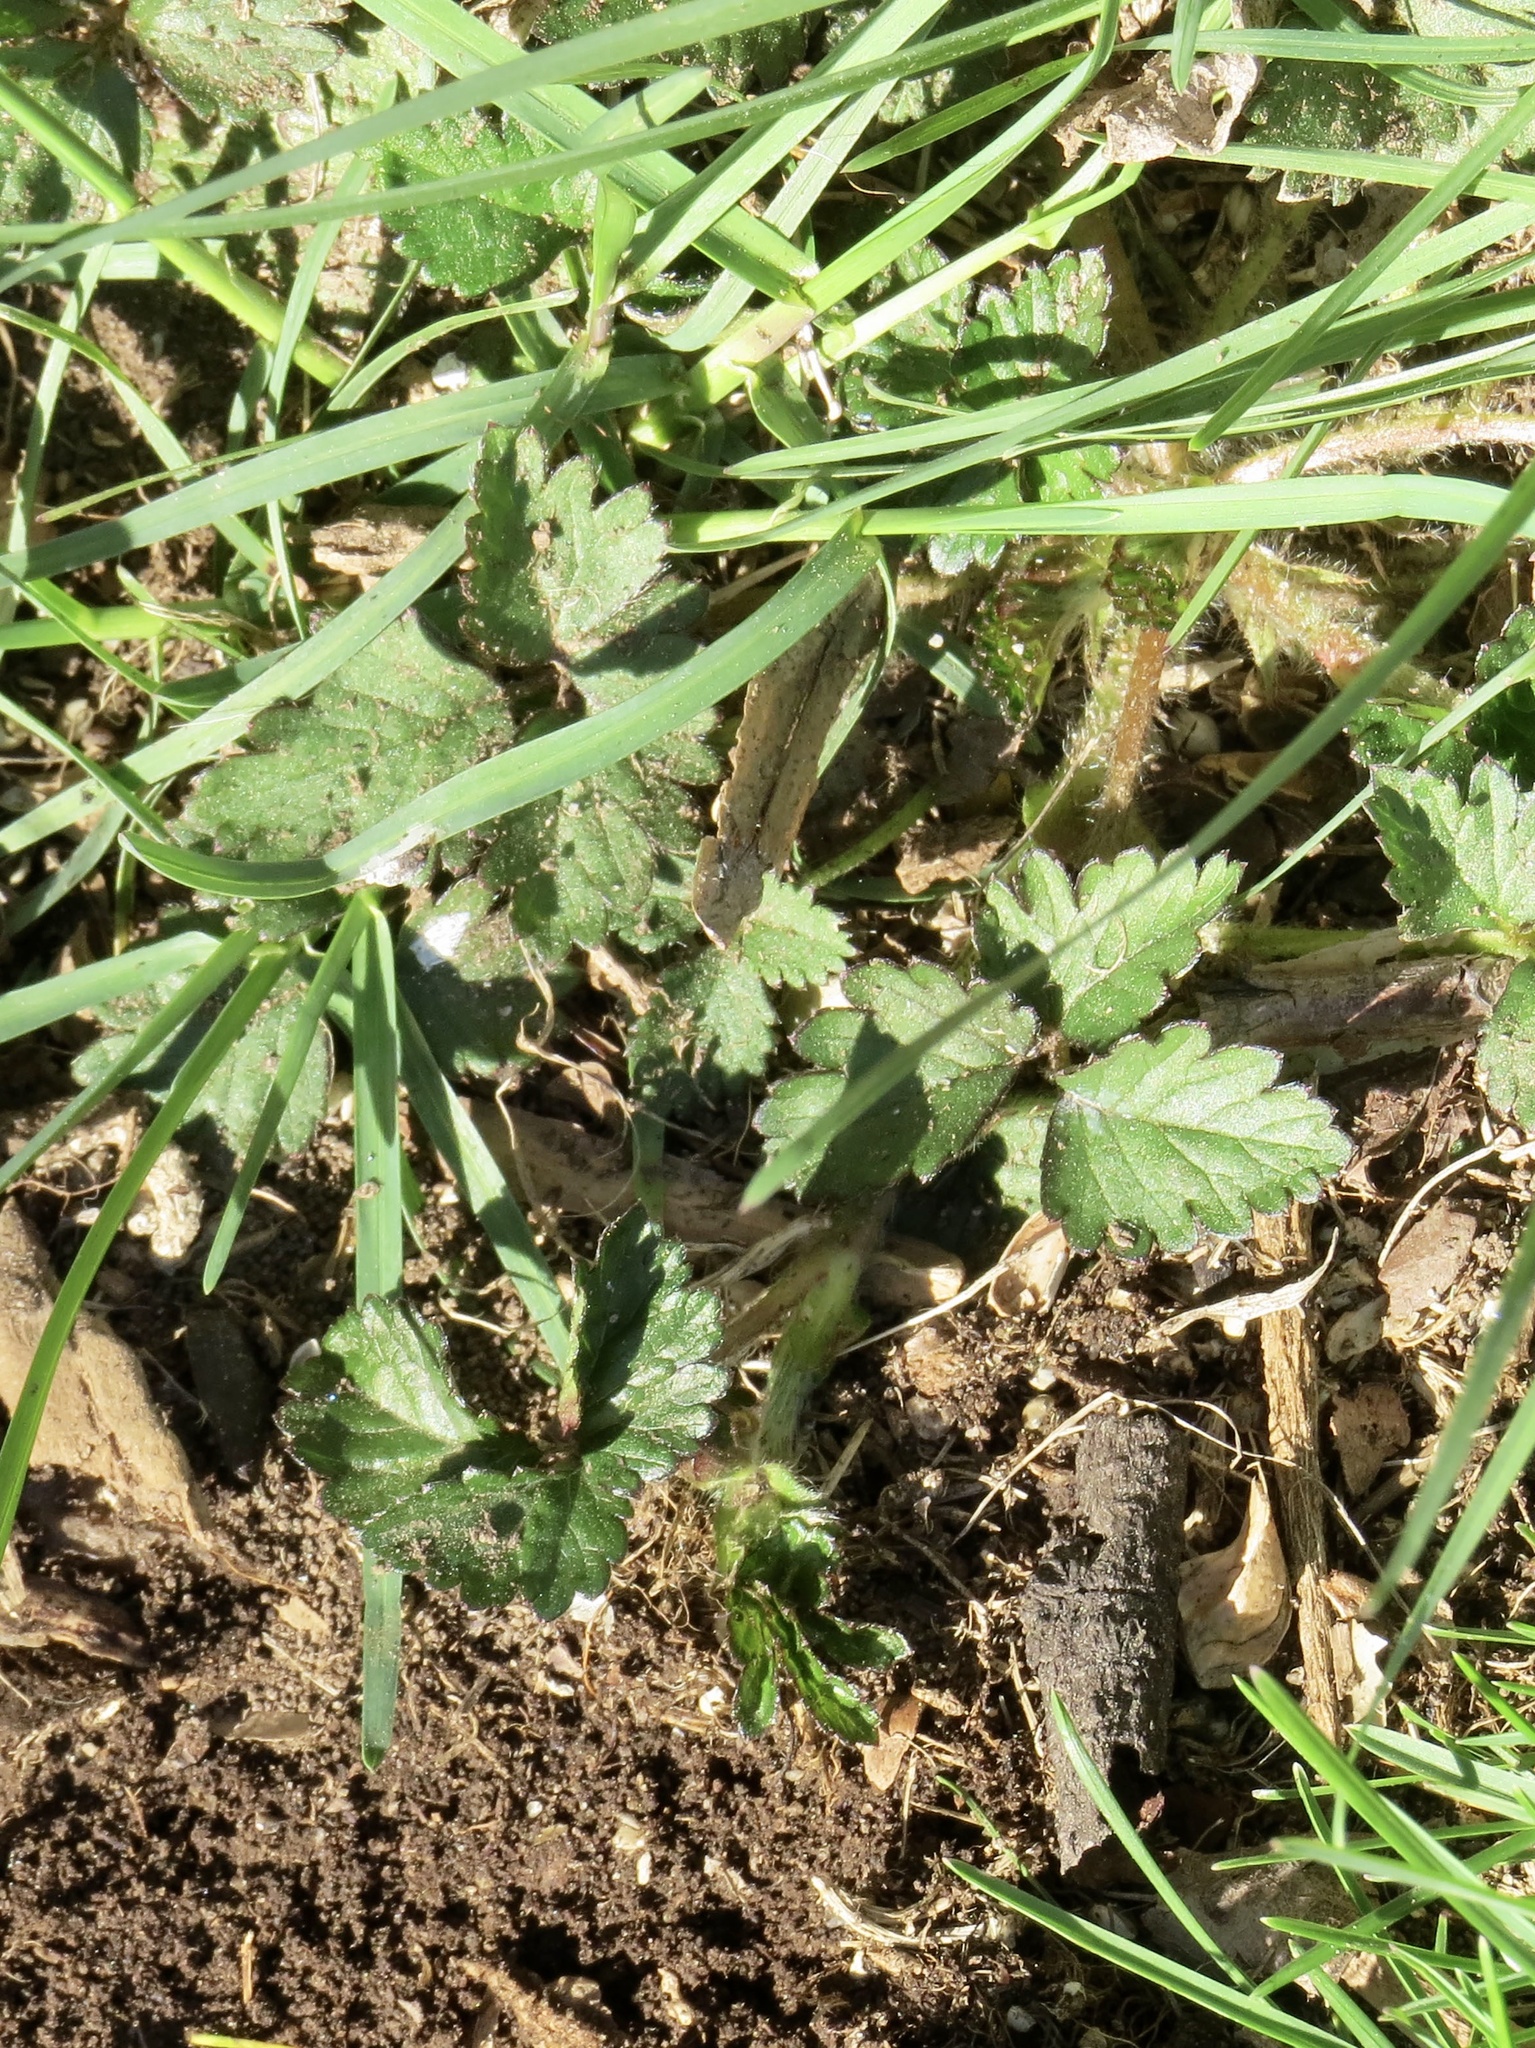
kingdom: Plantae
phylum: Tracheophyta
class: Magnoliopsida
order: Rosales
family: Rosaceae
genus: Potentilla
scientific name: Potentilla indica
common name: Yellow-flowered strawberry
